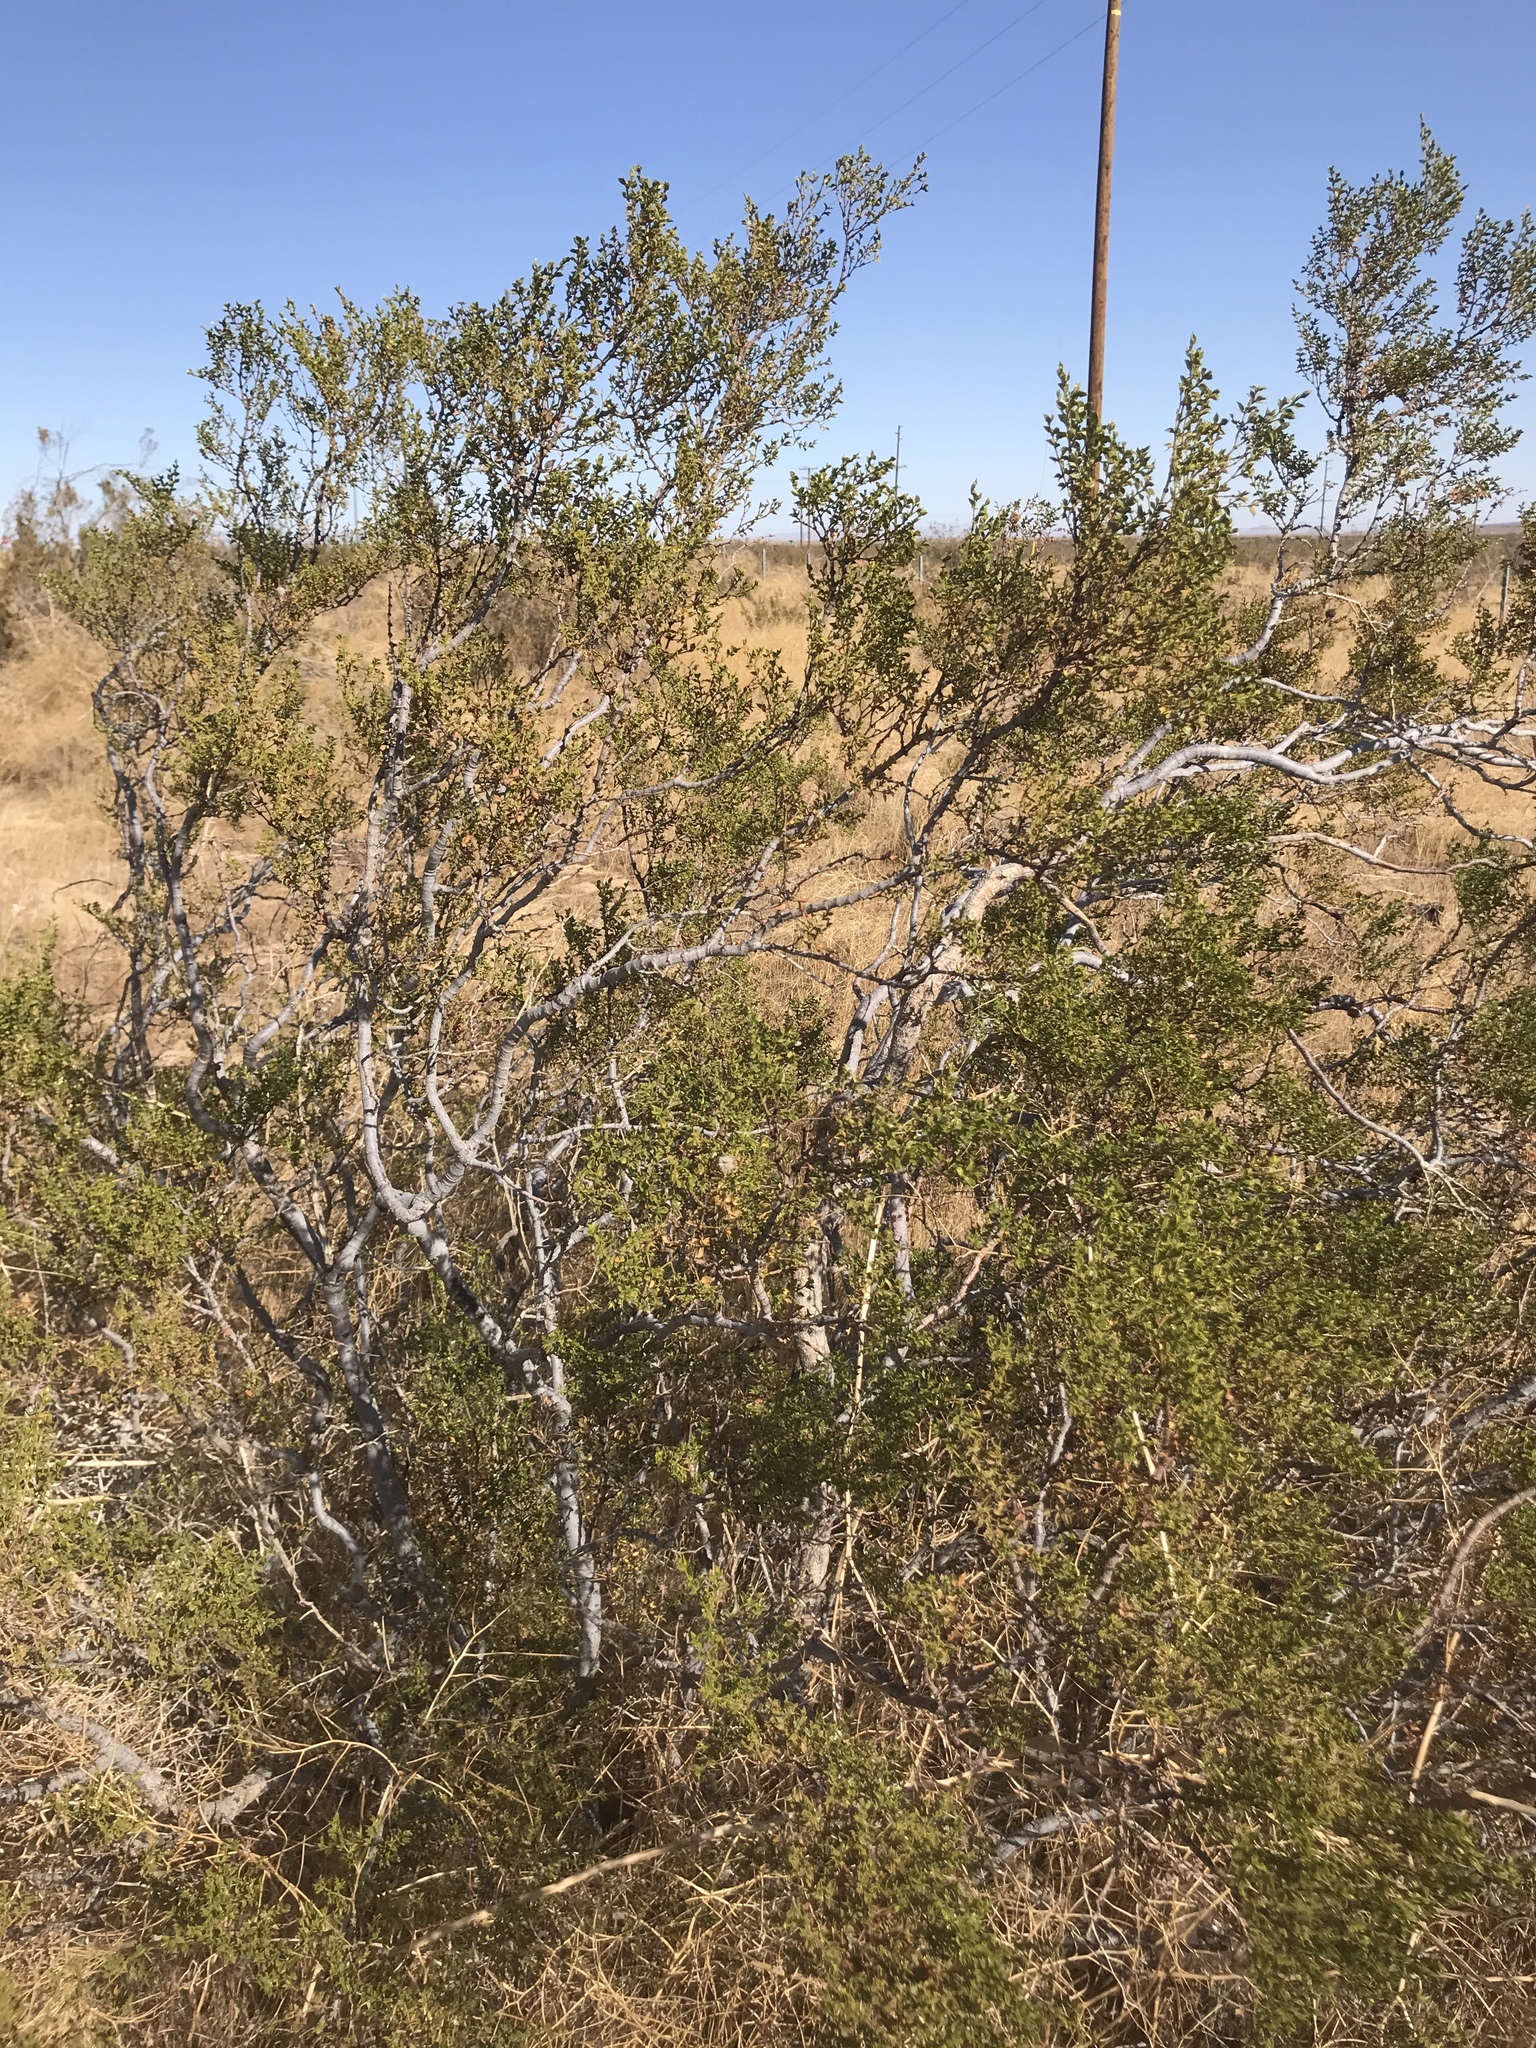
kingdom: Plantae
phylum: Tracheophyta
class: Magnoliopsida
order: Zygophyllales
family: Zygophyllaceae
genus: Larrea
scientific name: Larrea tridentata
